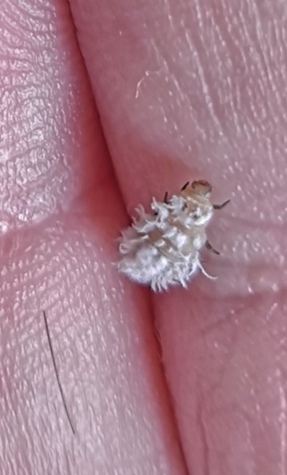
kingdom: Animalia
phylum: Arthropoda
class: Insecta
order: Coleoptera
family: Coccinellidae
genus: Cryptolaemus
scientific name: Cryptolaemus montrouzieri
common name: Mealybug destroyer
